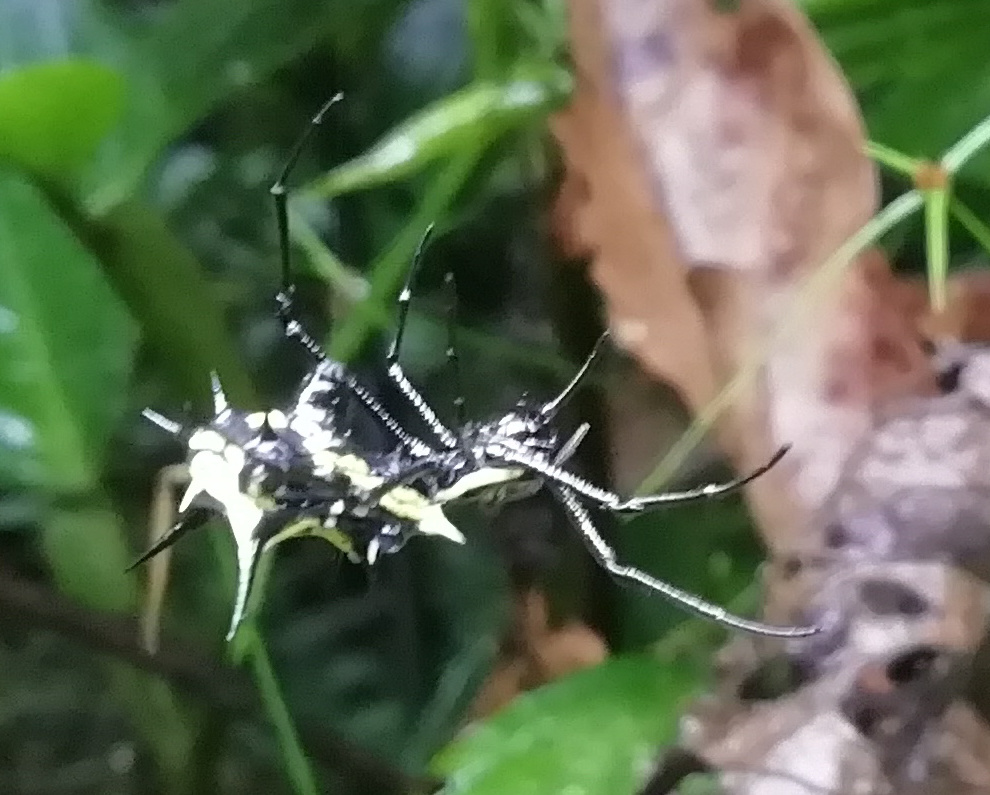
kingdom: Animalia
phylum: Arthropoda
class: Arachnida
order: Araneae
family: Araneidae
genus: Micrathena
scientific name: Micrathena vigorsi
